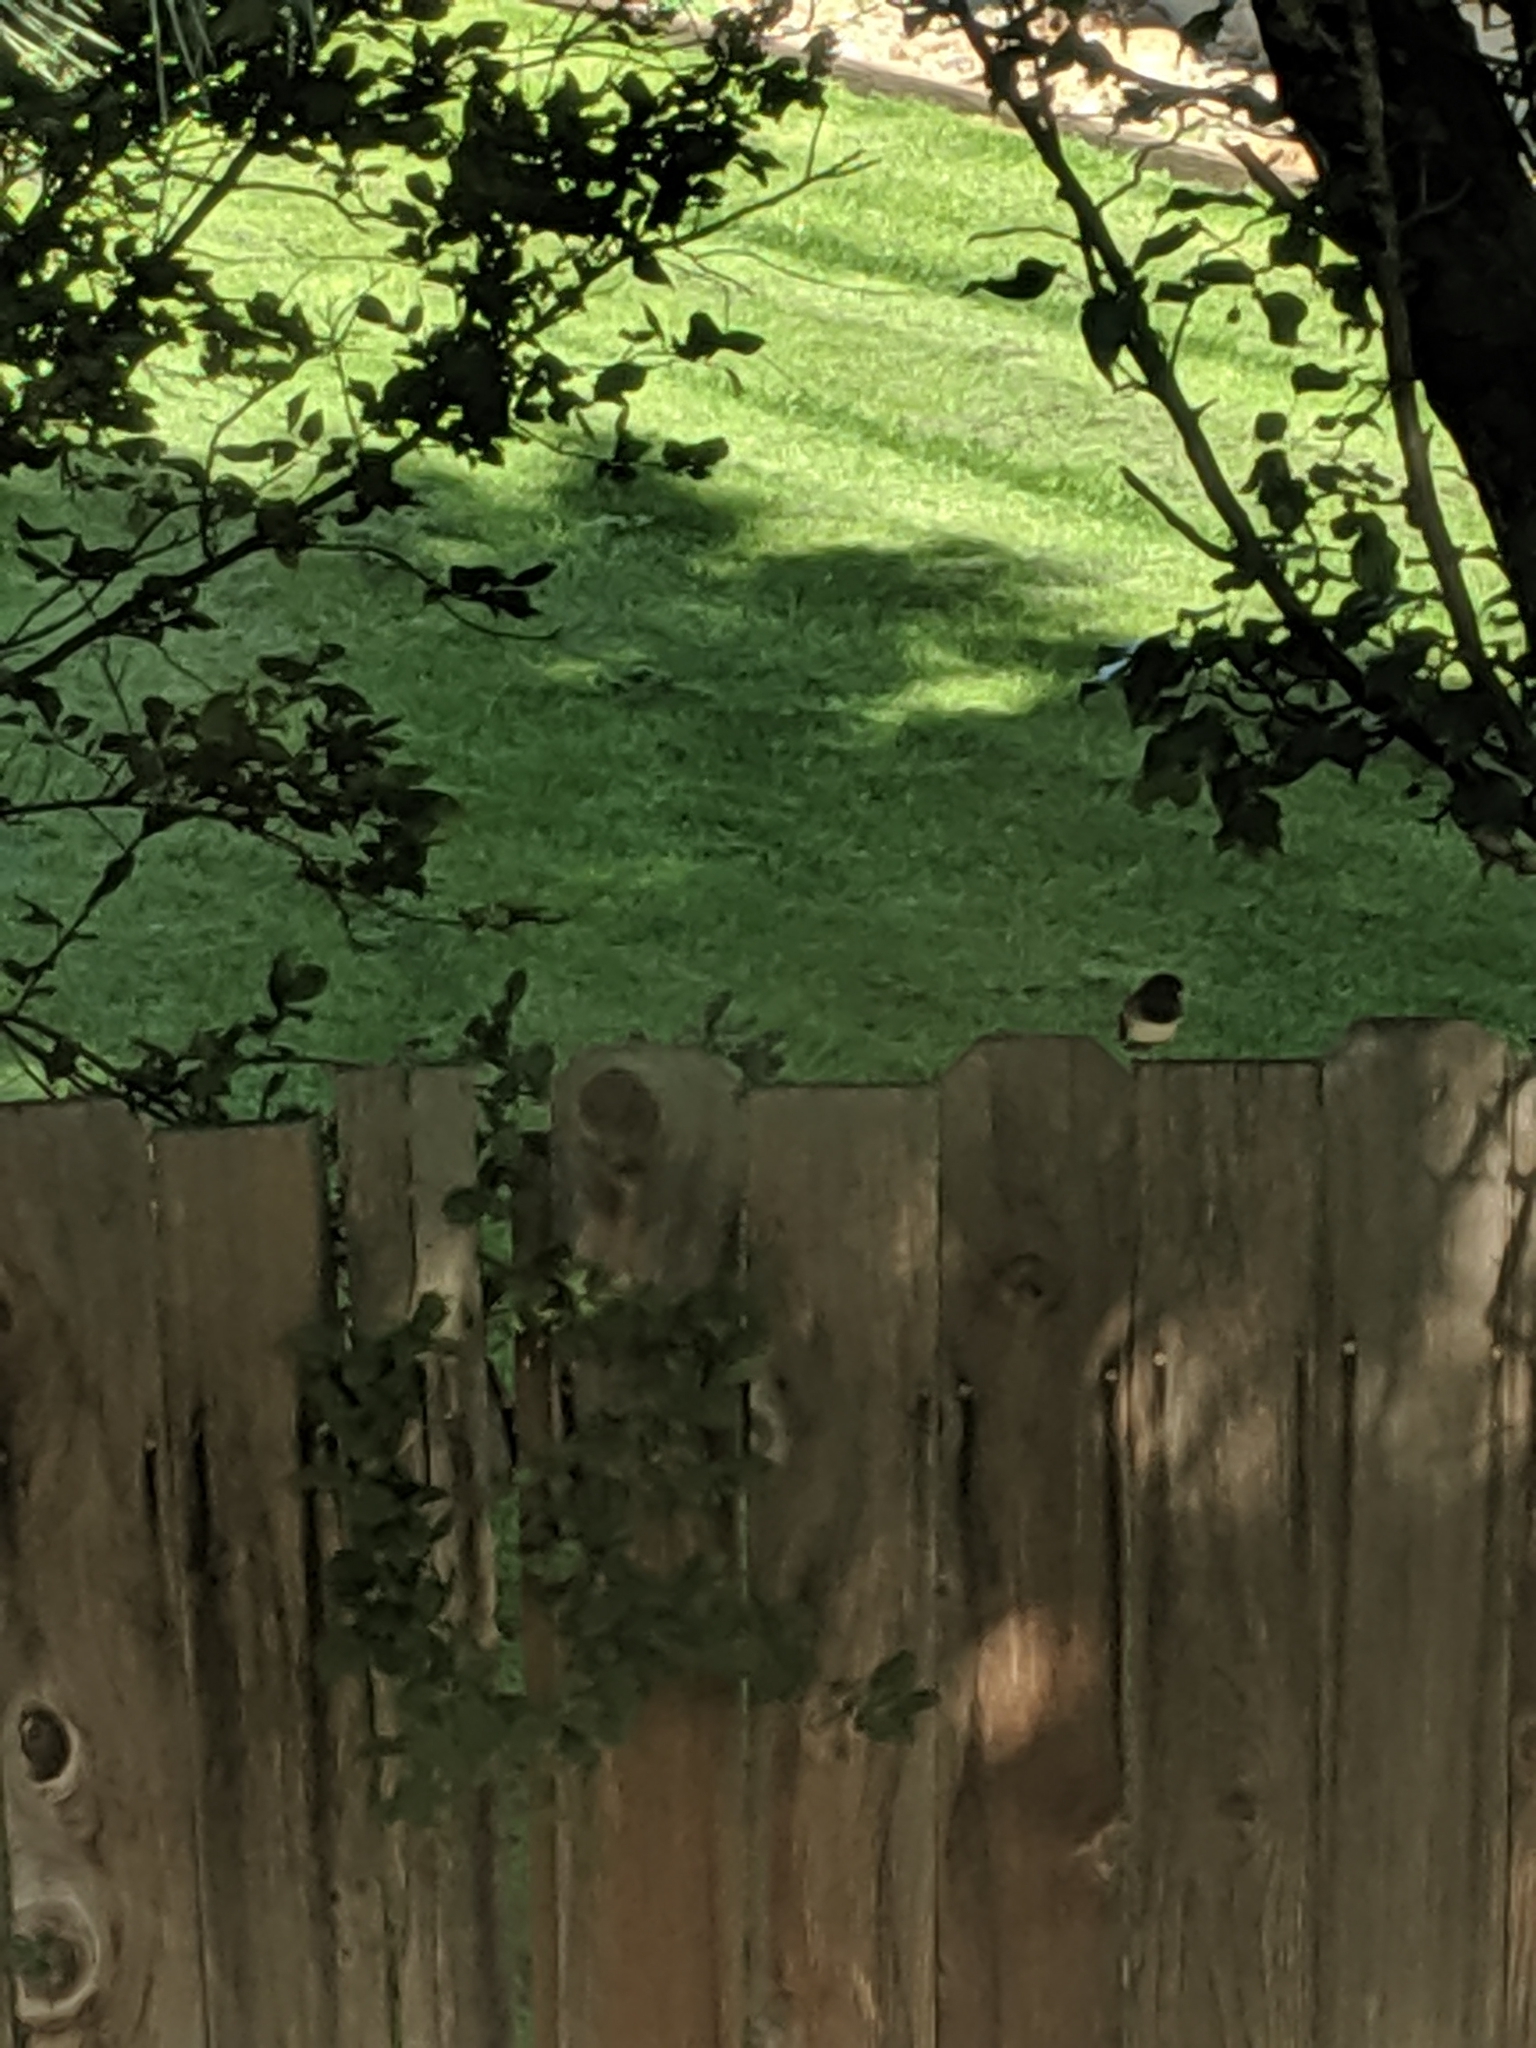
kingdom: Animalia
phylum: Chordata
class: Aves
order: Passeriformes
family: Passerellidae
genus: Junco
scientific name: Junco hyemalis
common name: Dark-eyed junco
